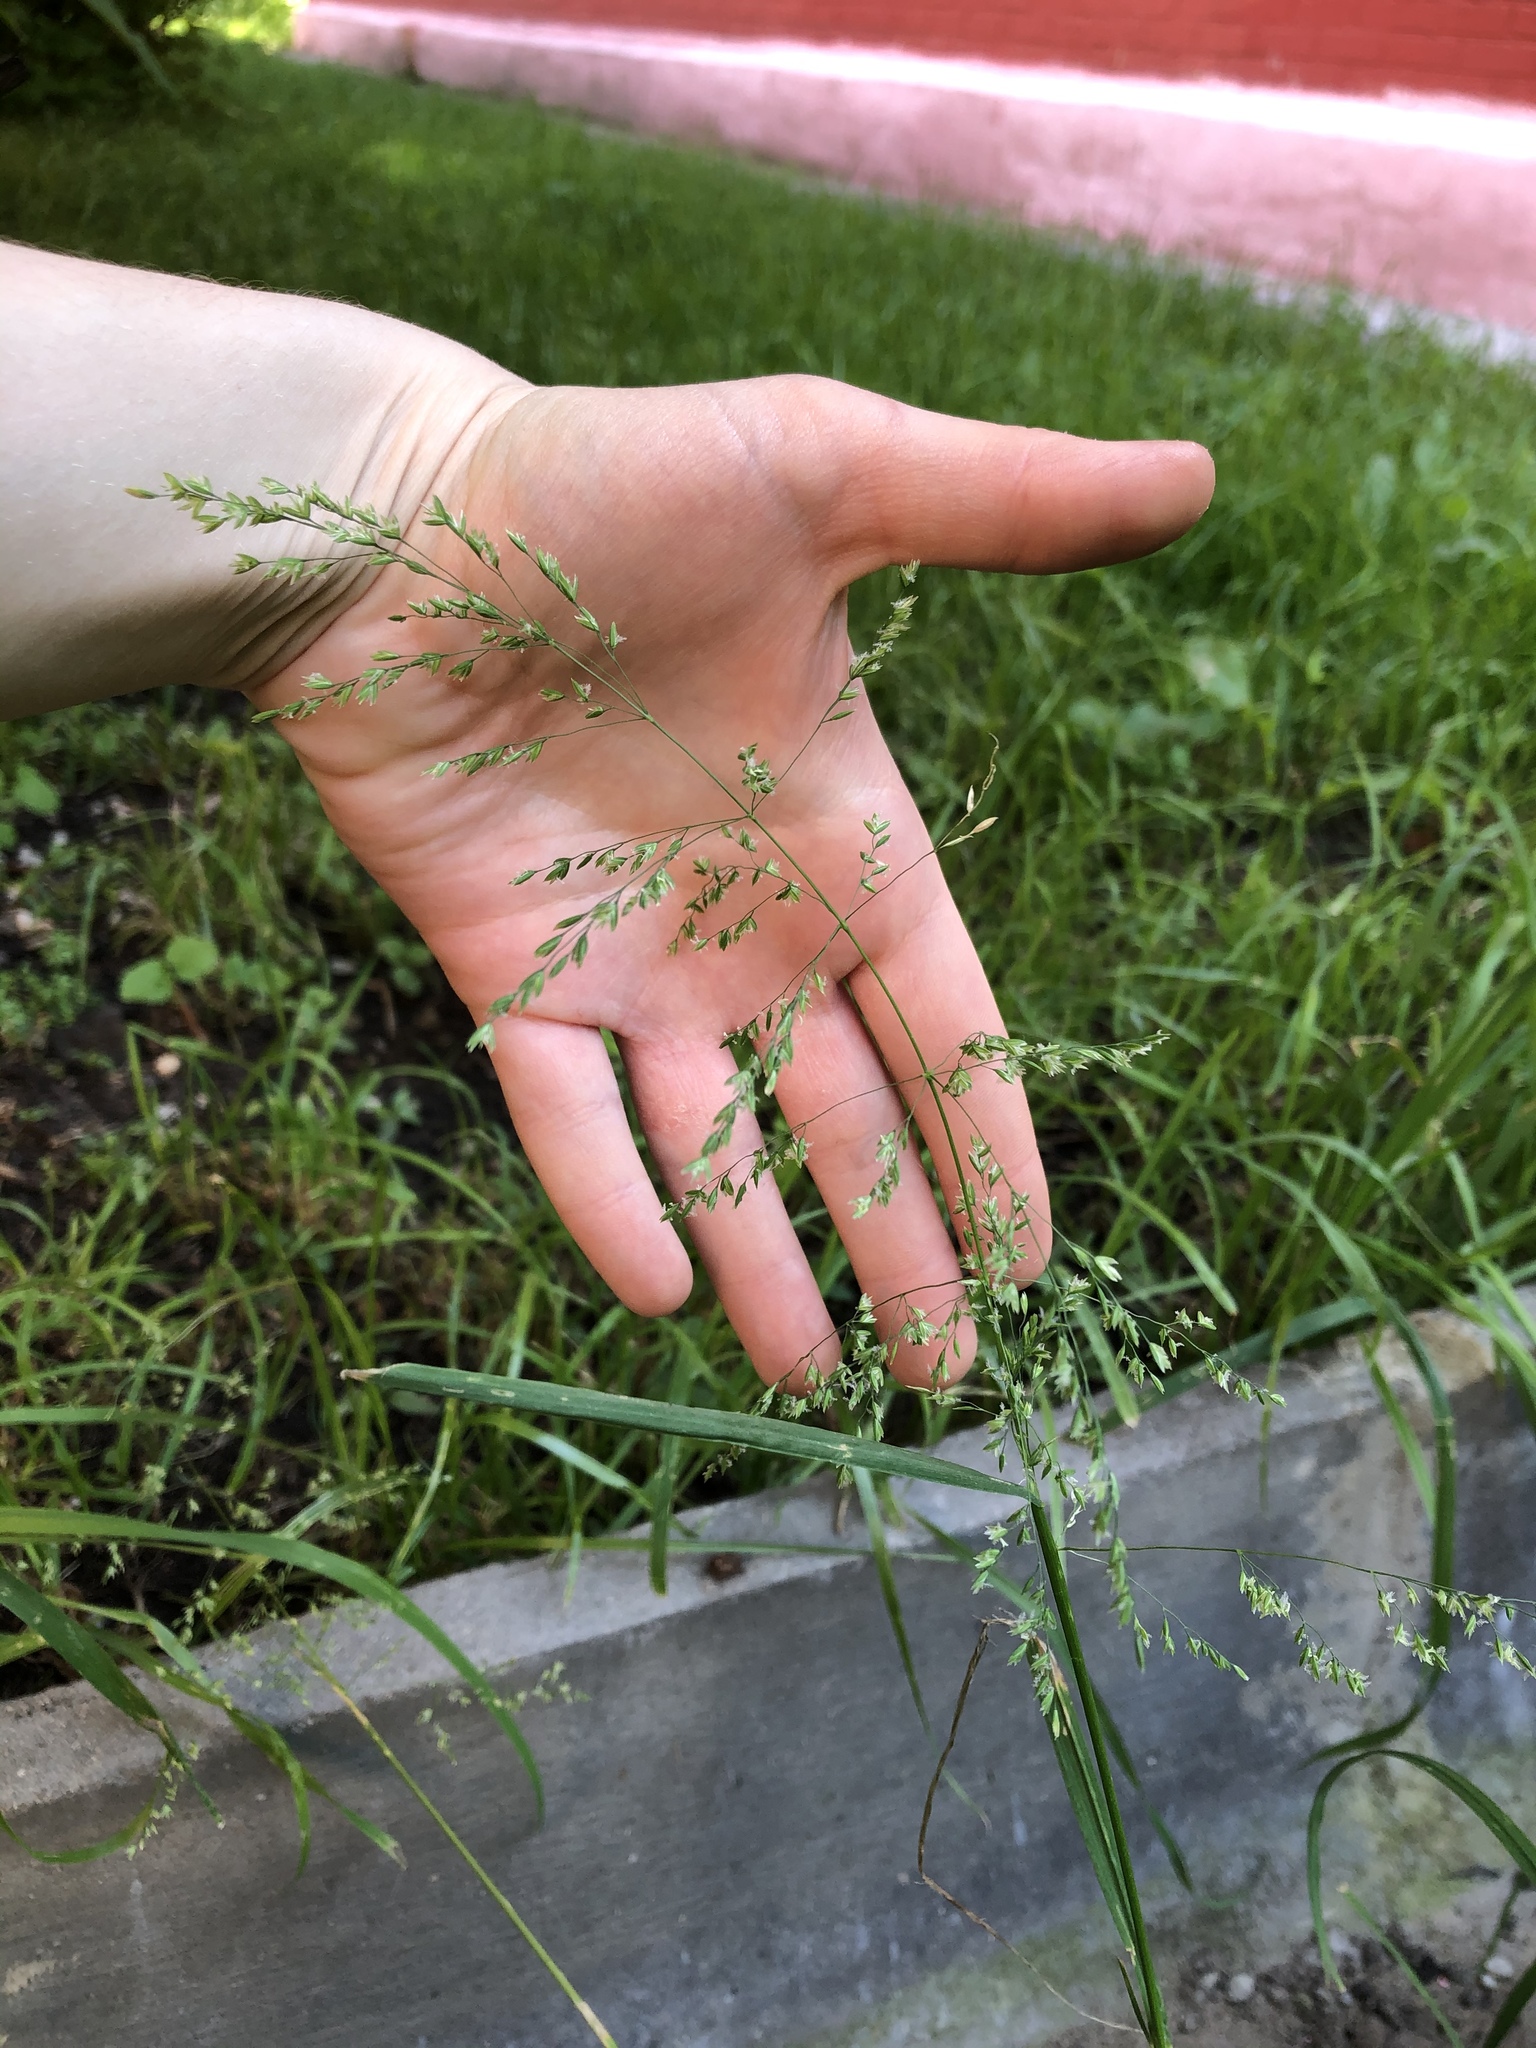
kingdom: Plantae
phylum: Tracheophyta
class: Liliopsida
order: Poales
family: Poaceae
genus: Poa
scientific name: Poa trivialis
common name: Rough bluegrass
